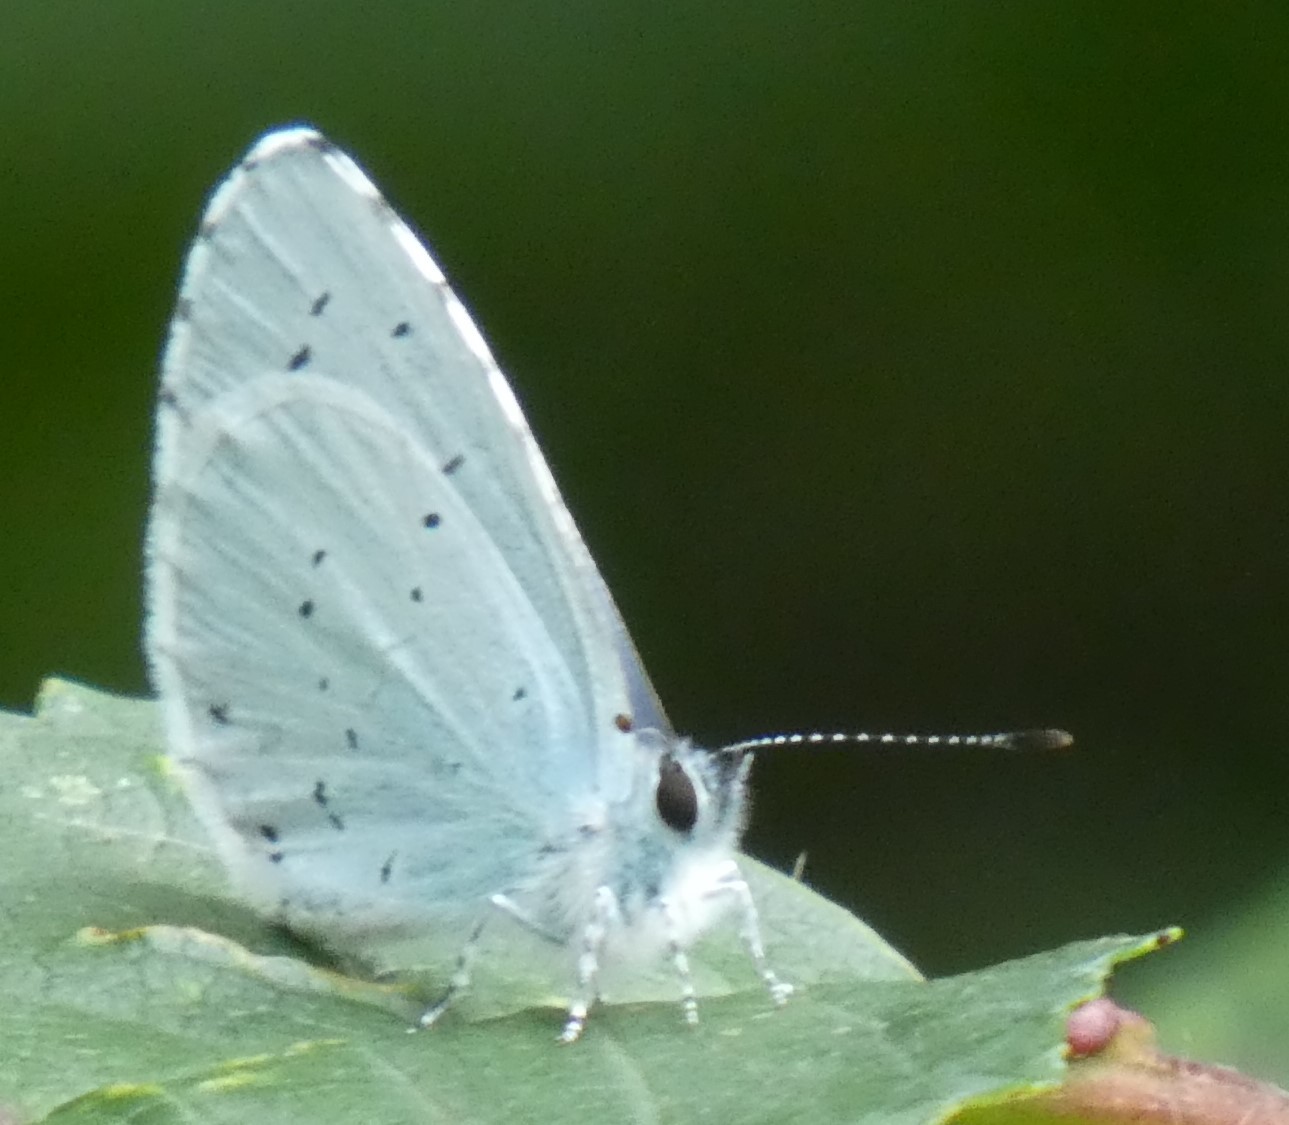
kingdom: Animalia
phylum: Arthropoda
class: Insecta
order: Lepidoptera
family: Lycaenidae
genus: Celastrina
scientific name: Celastrina argiolus
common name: Holly blue
